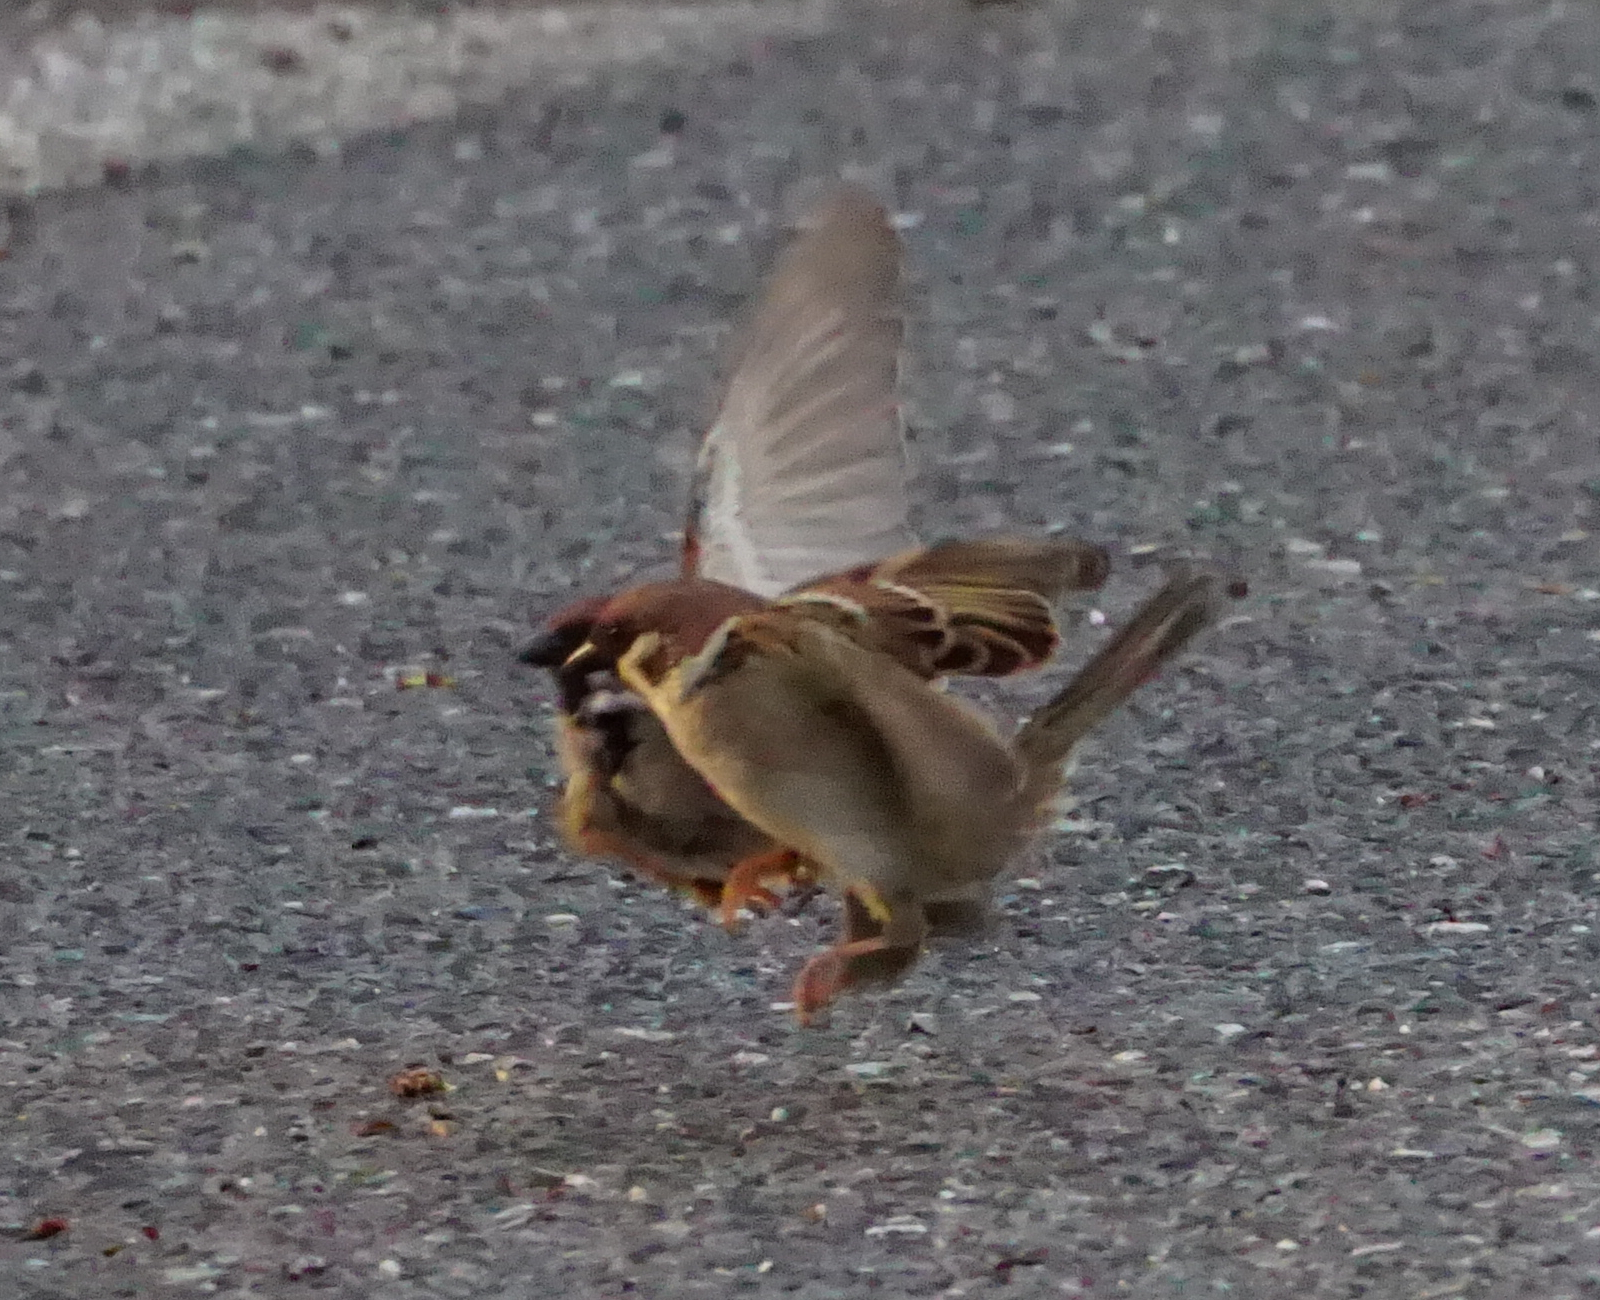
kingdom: Animalia
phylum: Chordata
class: Aves
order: Passeriformes
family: Passeridae
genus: Passer
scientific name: Passer montanus
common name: Eurasian tree sparrow
